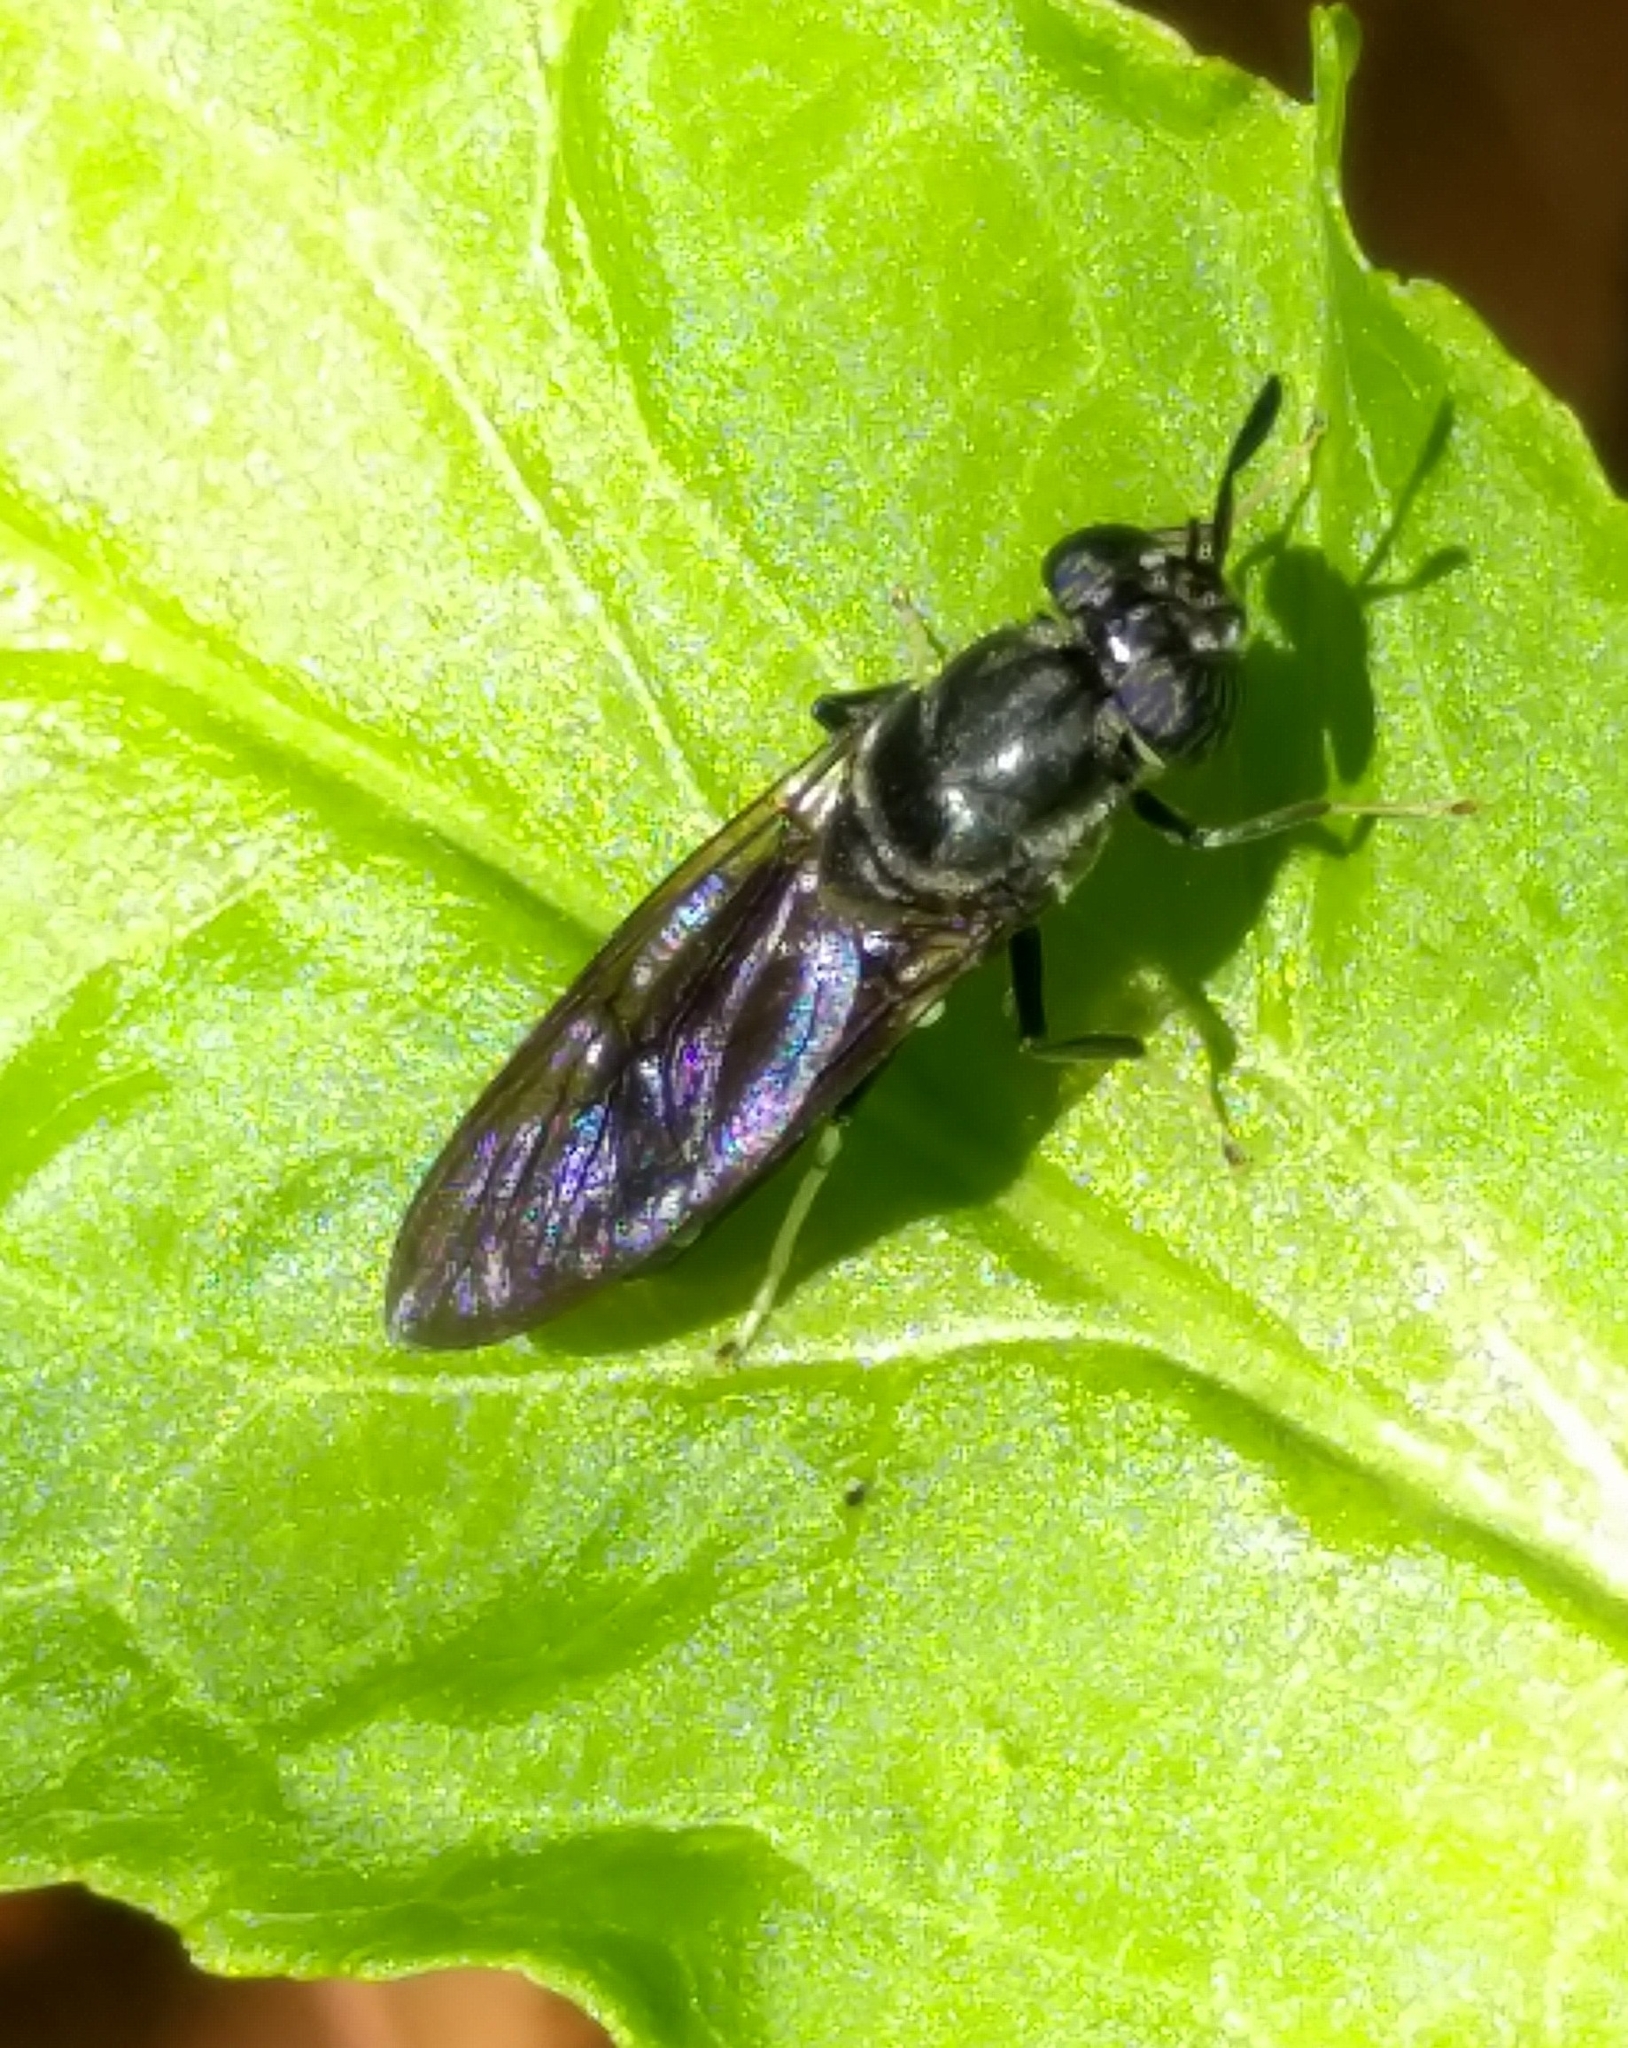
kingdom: Animalia
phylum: Arthropoda
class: Insecta
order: Diptera
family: Stratiomyidae
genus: Hermetia
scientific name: Hermetia illucens
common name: Black soldier fly
